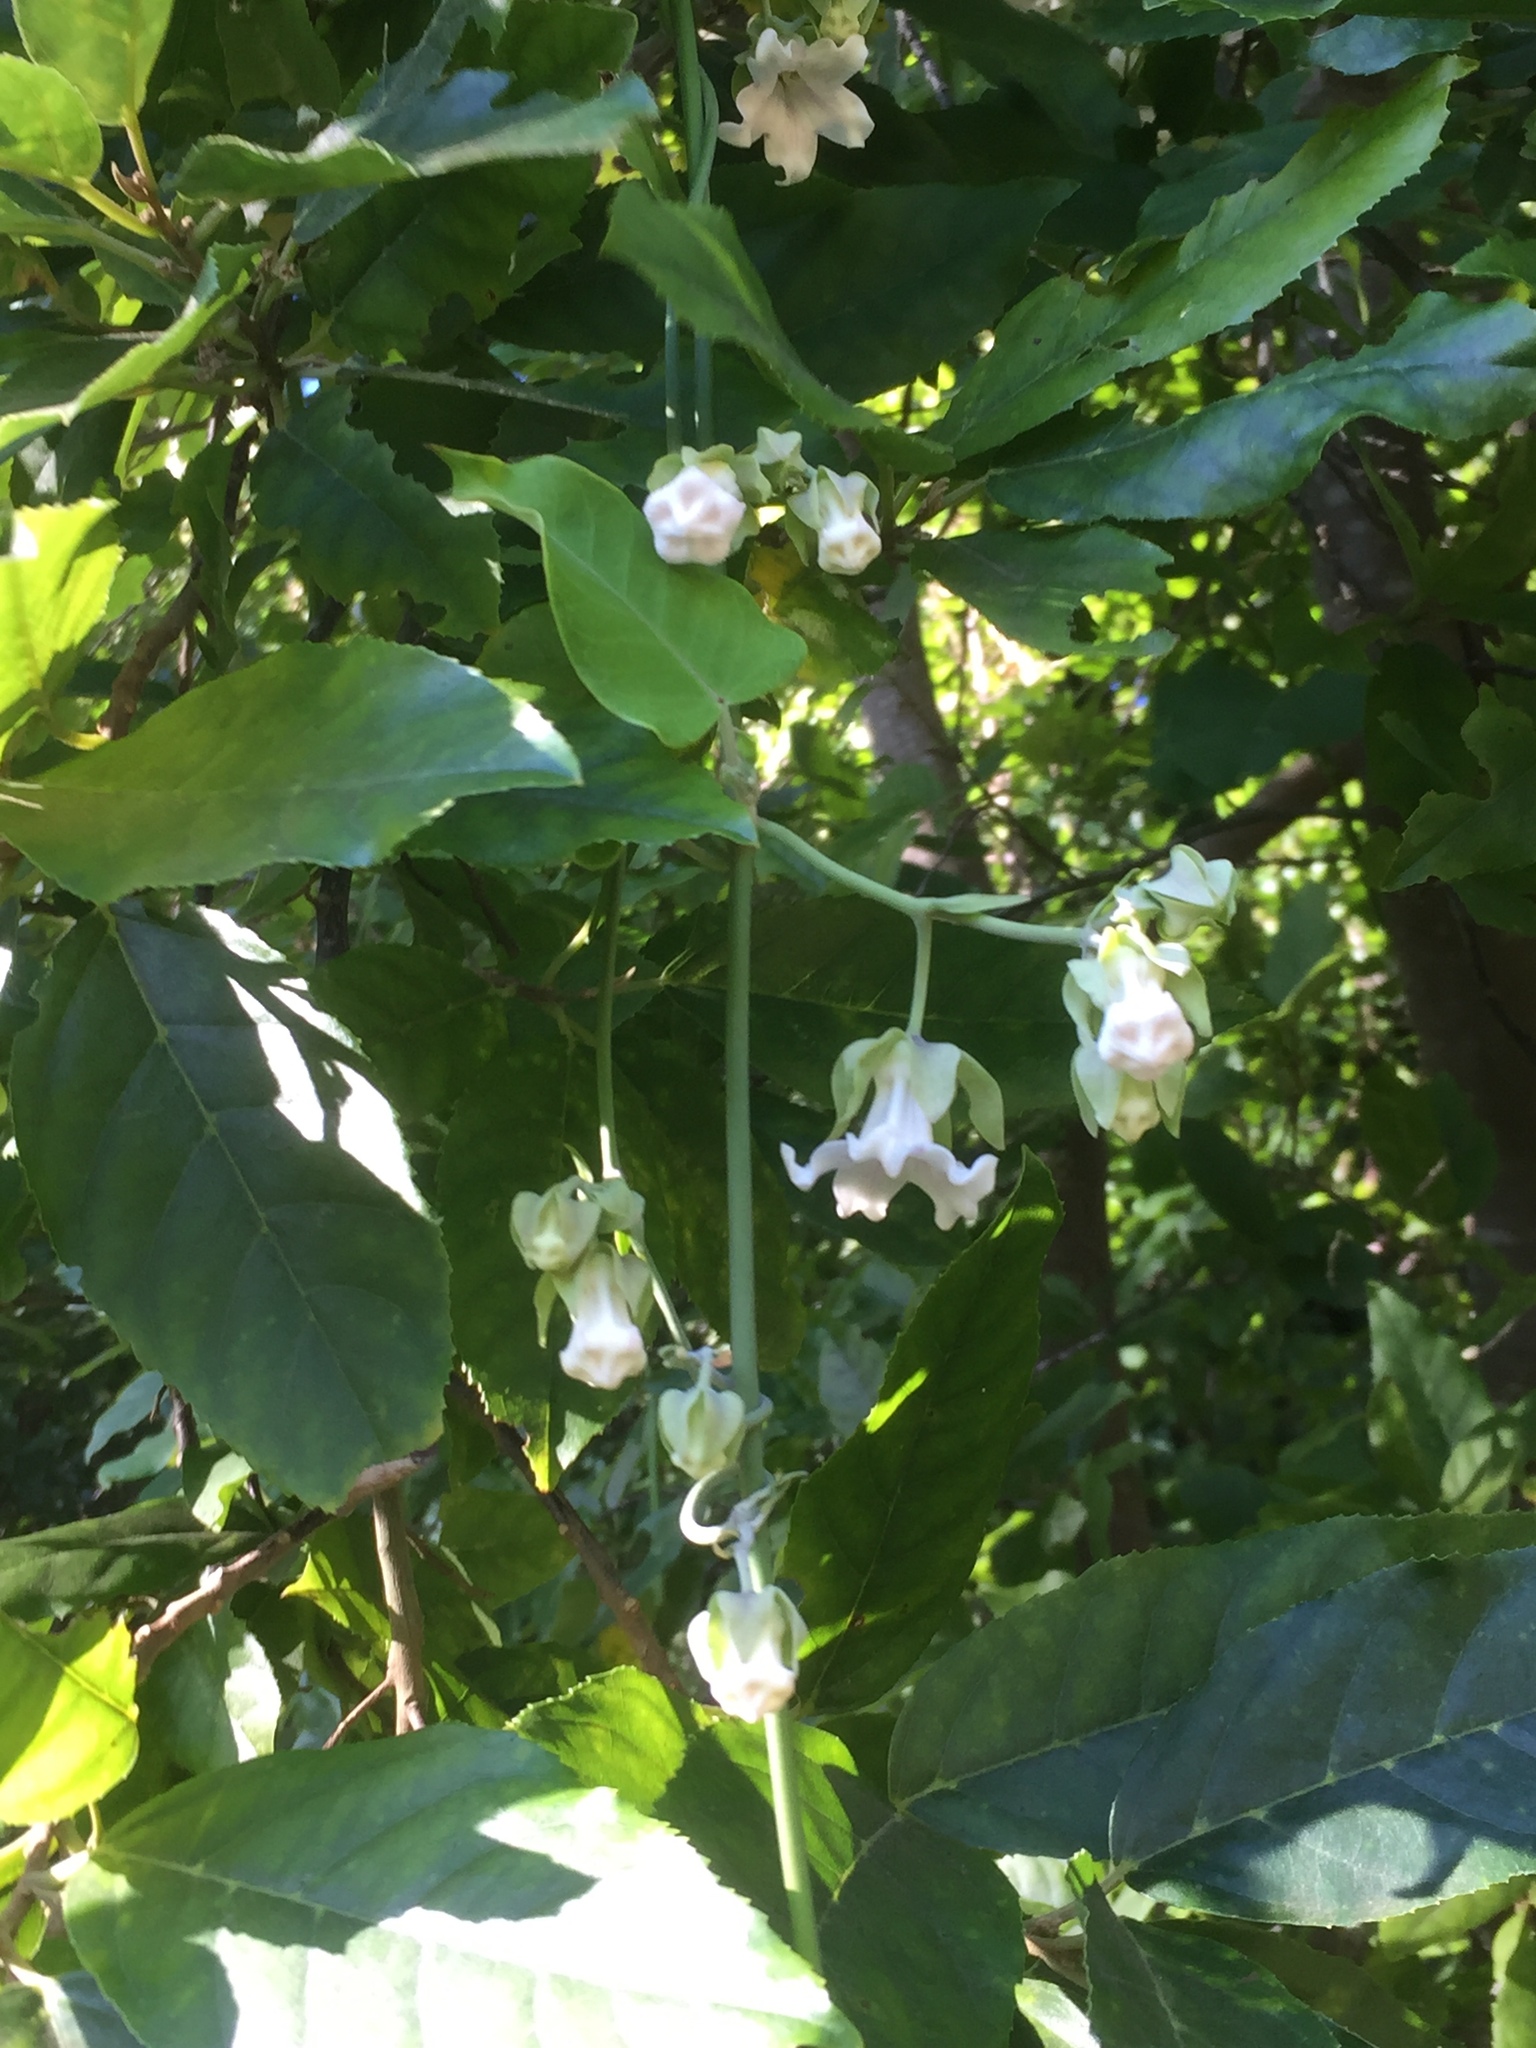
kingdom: Plantae
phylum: Tracheophyta
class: Magnoliopsida
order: Gentianales
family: Apocynaceae
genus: Araujia
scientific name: Araujia sericifera
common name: White bladderflower
